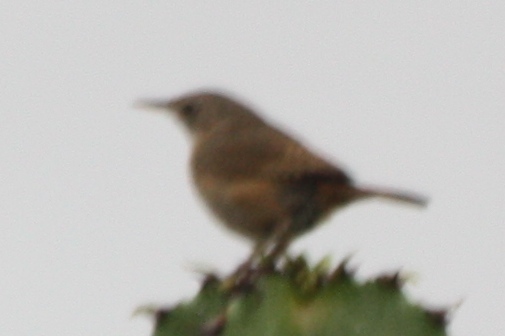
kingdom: Animalia
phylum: Chordata
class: Aves
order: Passeriformes
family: Troglodytidae
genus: Troglodytes
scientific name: Troglodytes aedon
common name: House wren
